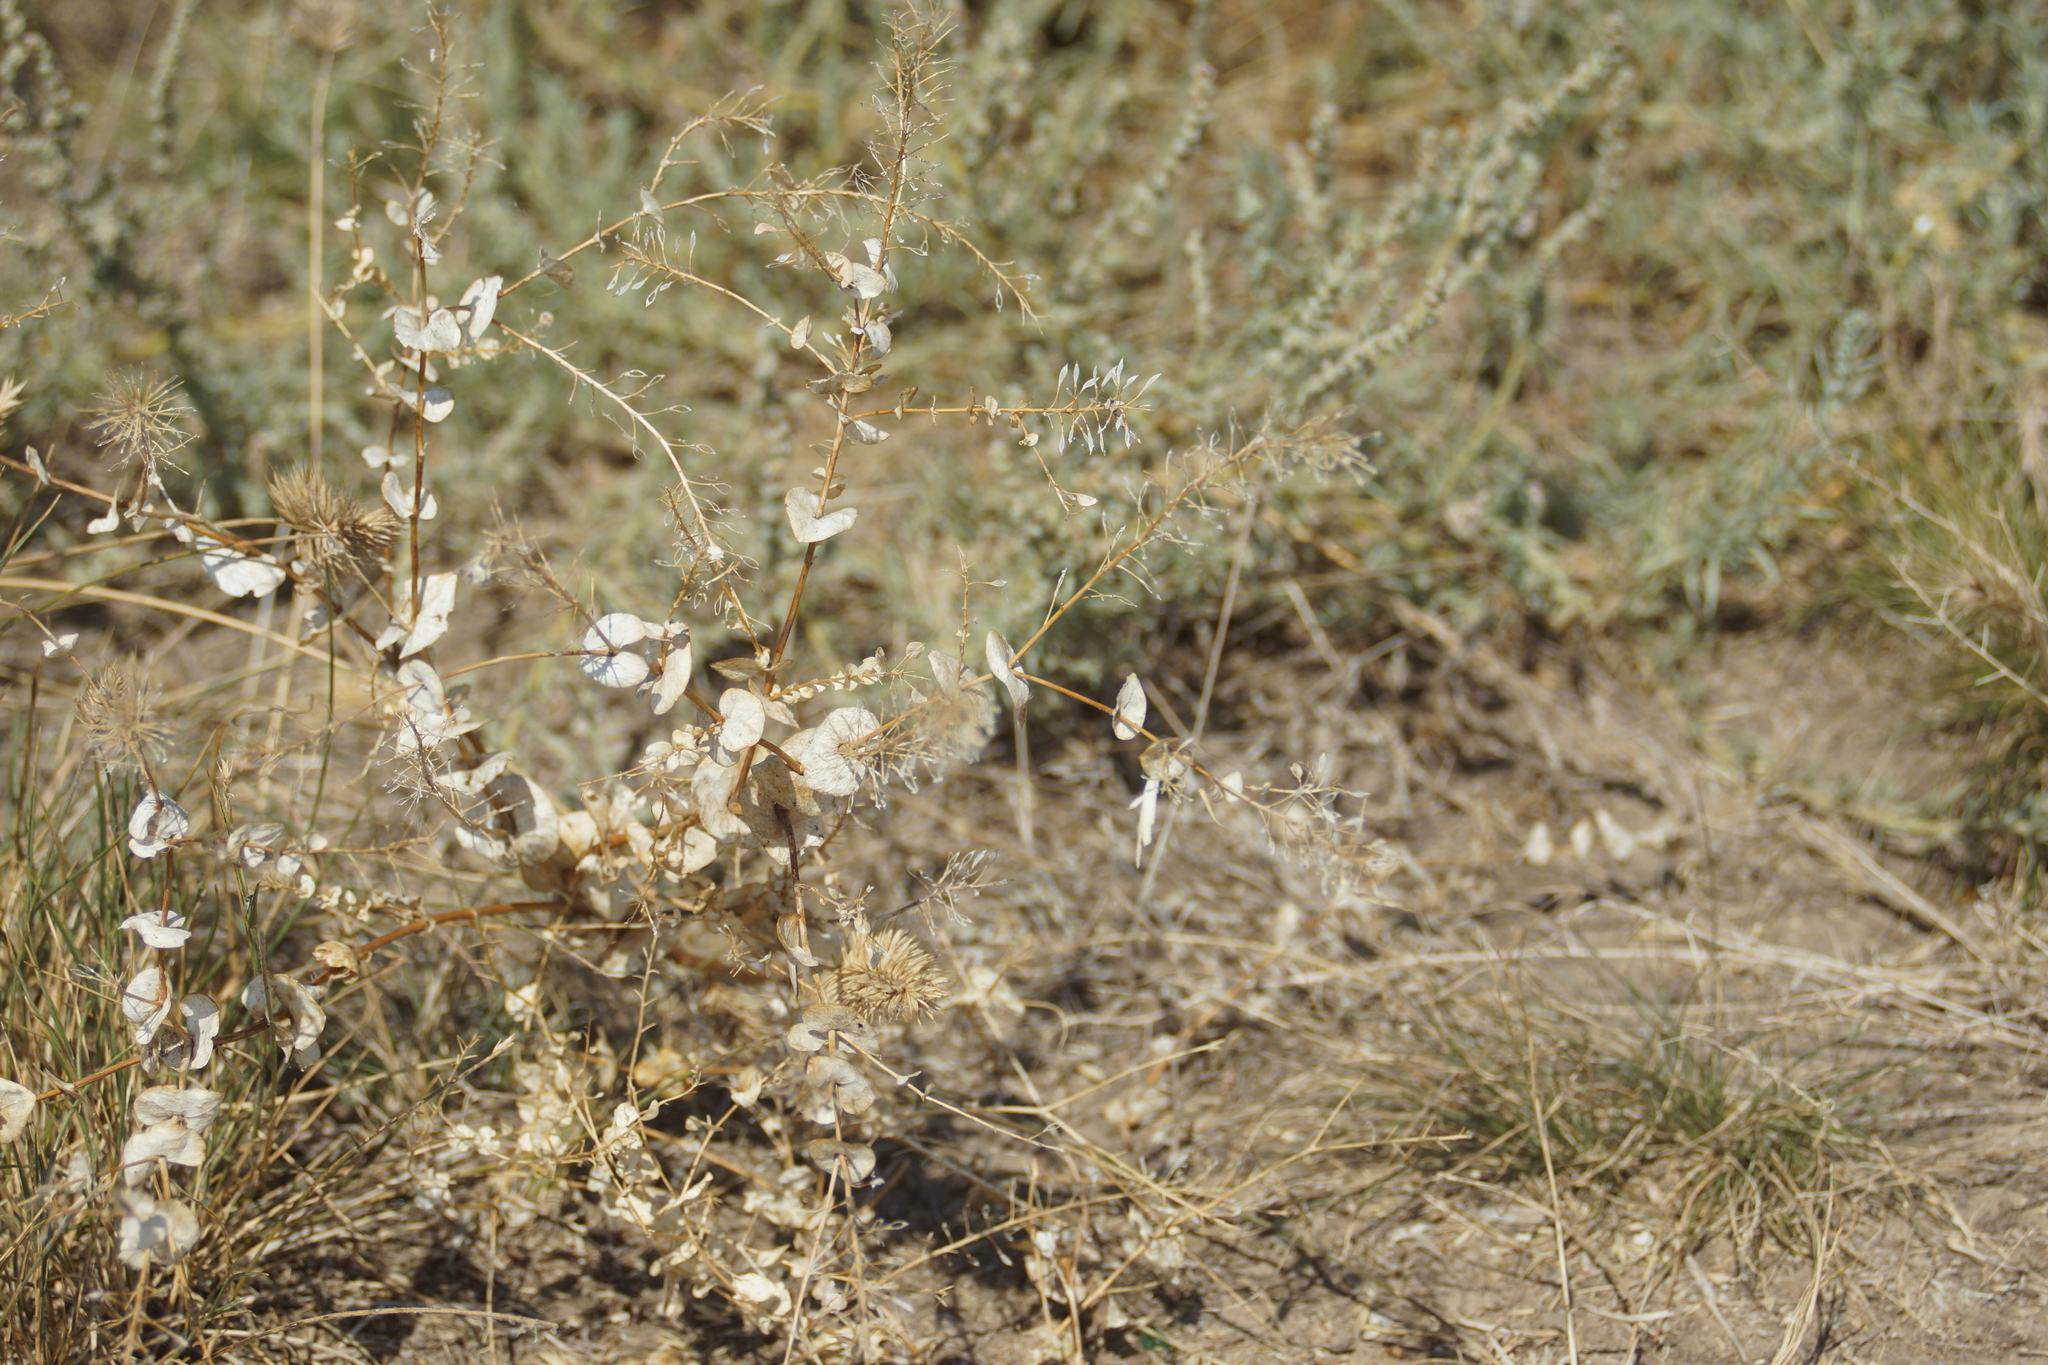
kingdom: Plantae
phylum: Tracheophyta
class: Magnoliopsida
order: Brassicales
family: Brassicaceae
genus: Lepidium
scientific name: Lepidium perfoliatum
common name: Perfoliate pepperwort
